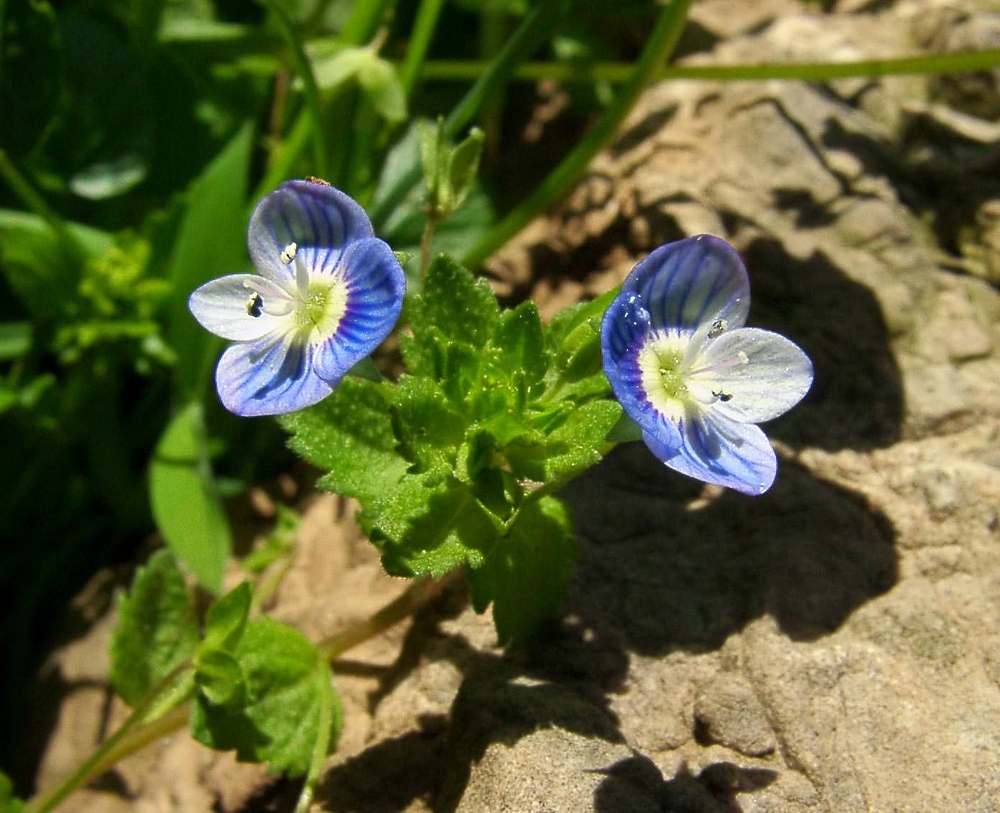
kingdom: Plantae
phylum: Tracheophyta
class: Magnoliopsida
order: Lamiales
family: Plantaginaceae
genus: Veronica
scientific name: Veronica persica
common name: Common field-speedwell
